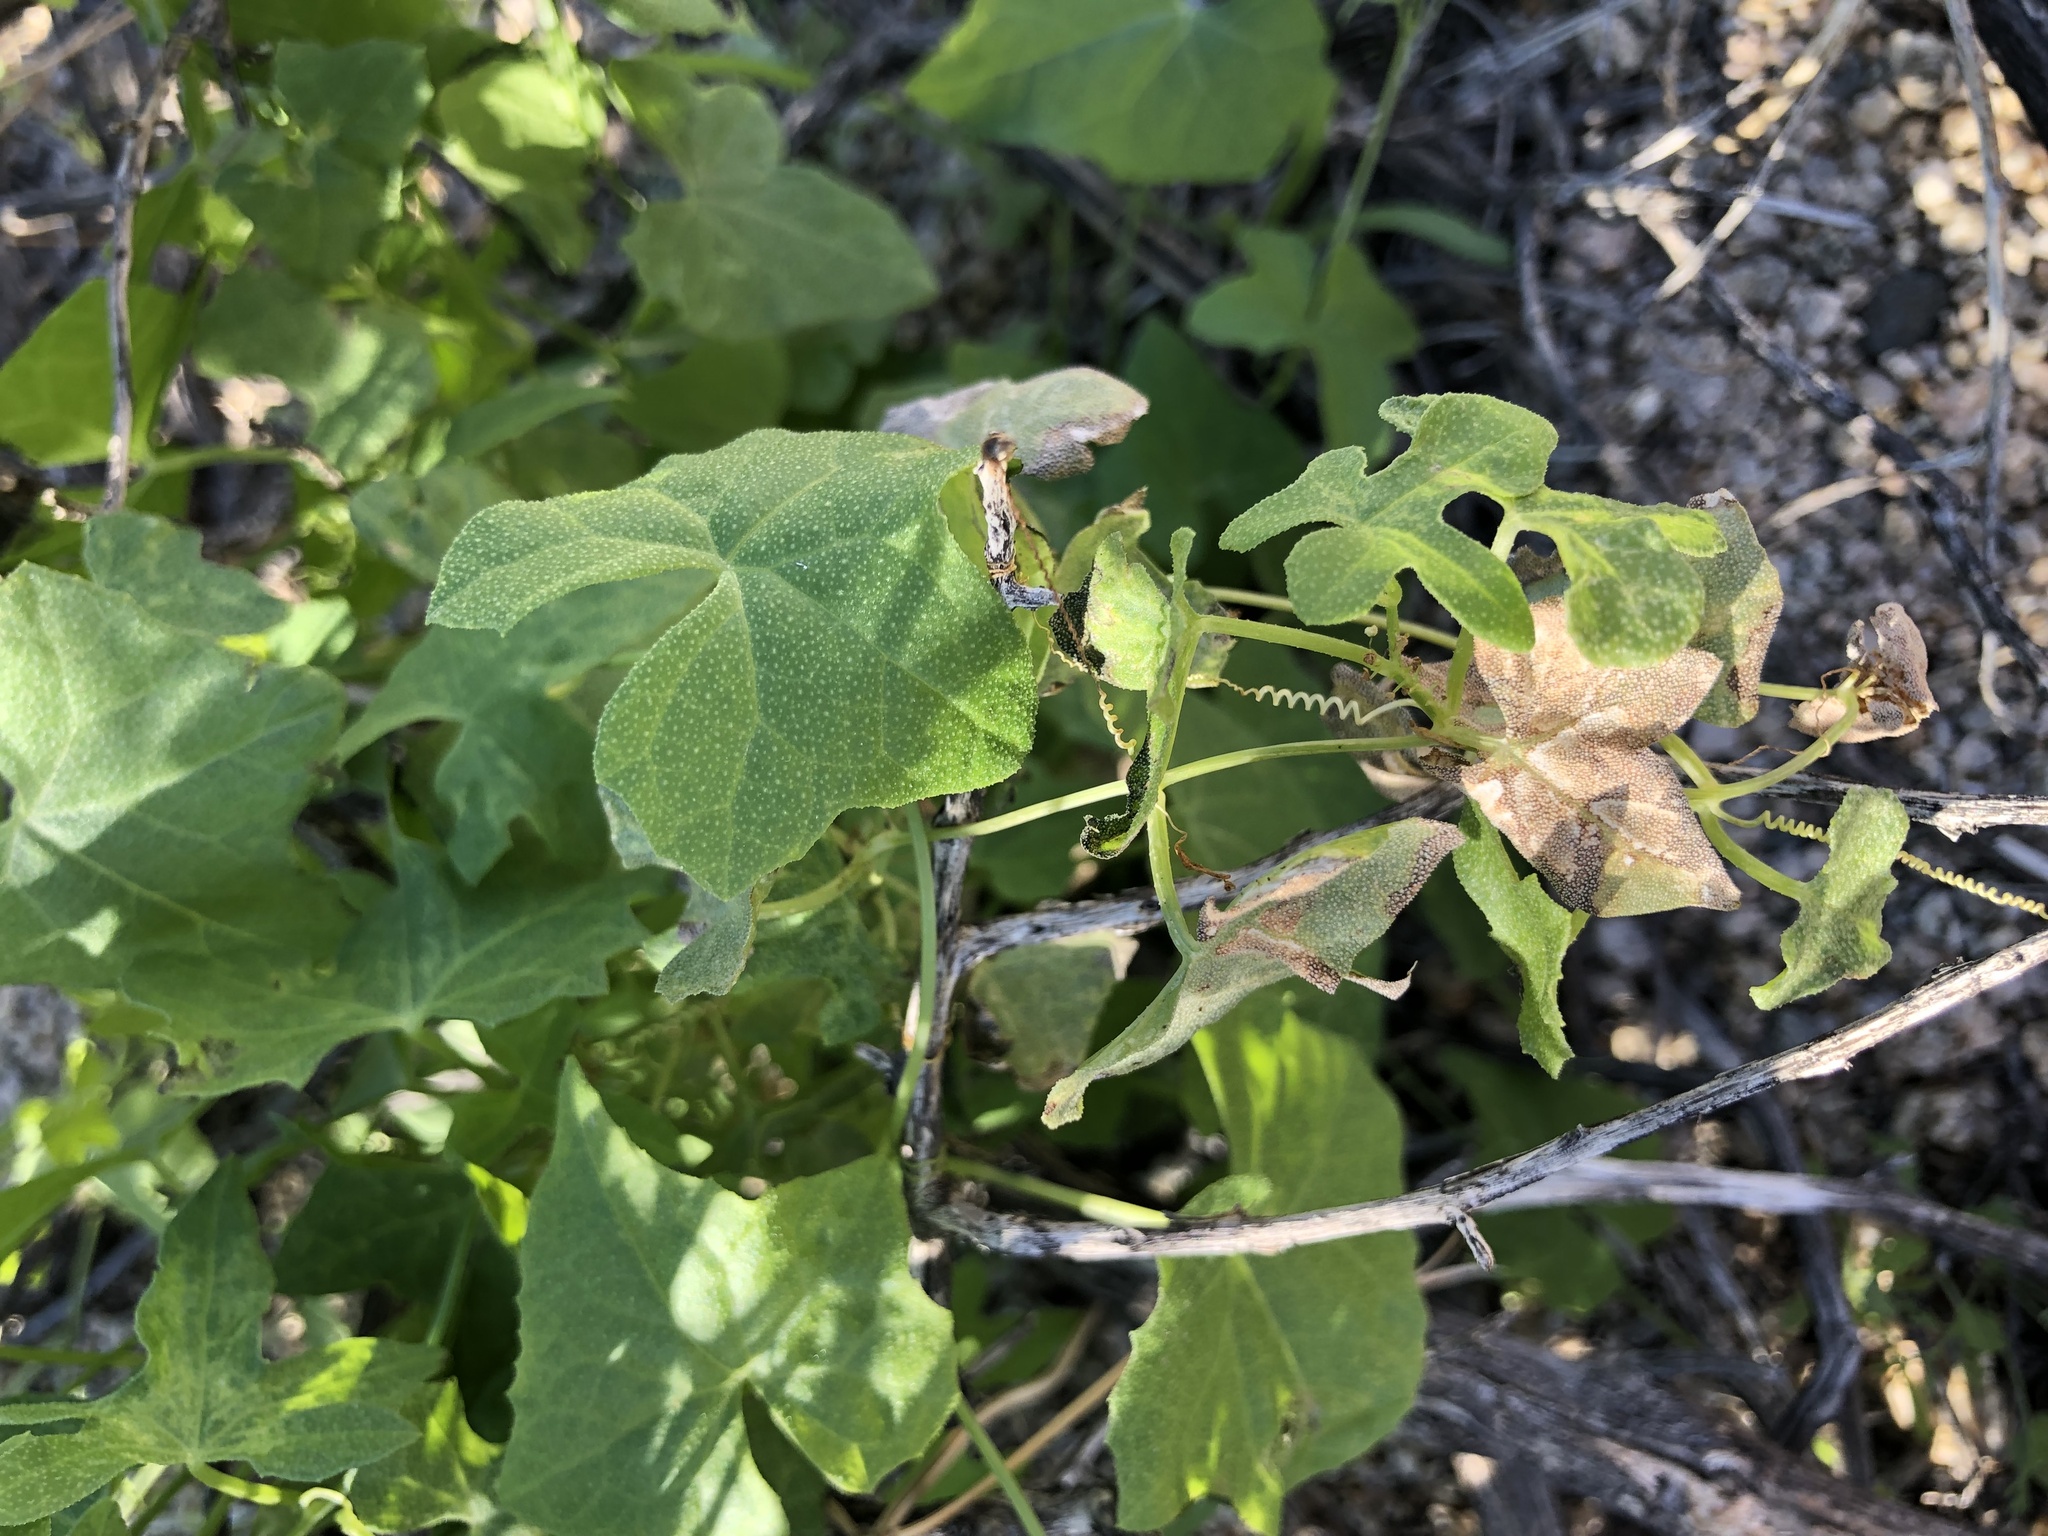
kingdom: Plantae
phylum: Tracheophyta
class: Magnoliopsida
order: Cucurbitales
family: Cucurbitaceae
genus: Echinopepon
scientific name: Echinopepon bigelovii
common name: Desert starvine
